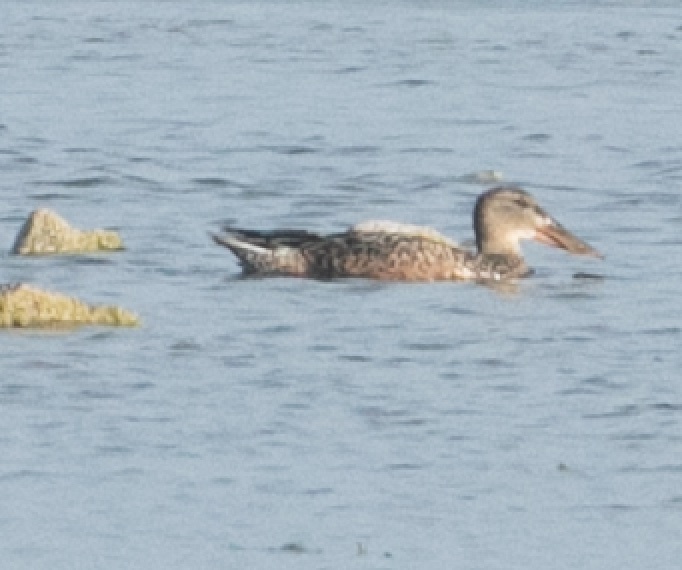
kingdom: Animalia
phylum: Chordata
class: Aves
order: Anseriformes
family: Anatidae
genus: Spatula
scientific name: Spatula clypeata
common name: Northern shoveler
